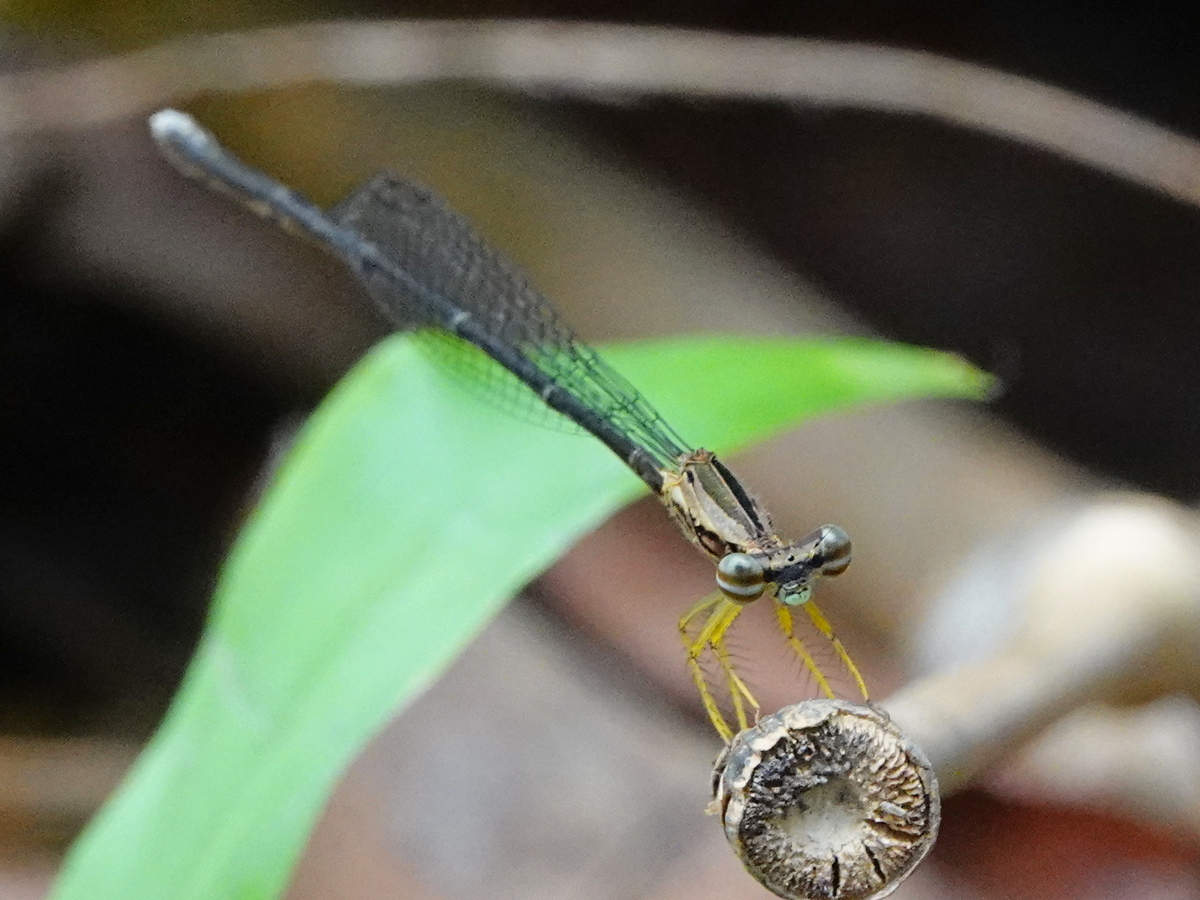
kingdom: Animalia
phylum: Arthropoda
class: Insecta
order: Odonata
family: Platycnemididae
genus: Copera
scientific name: Copera marginipes
